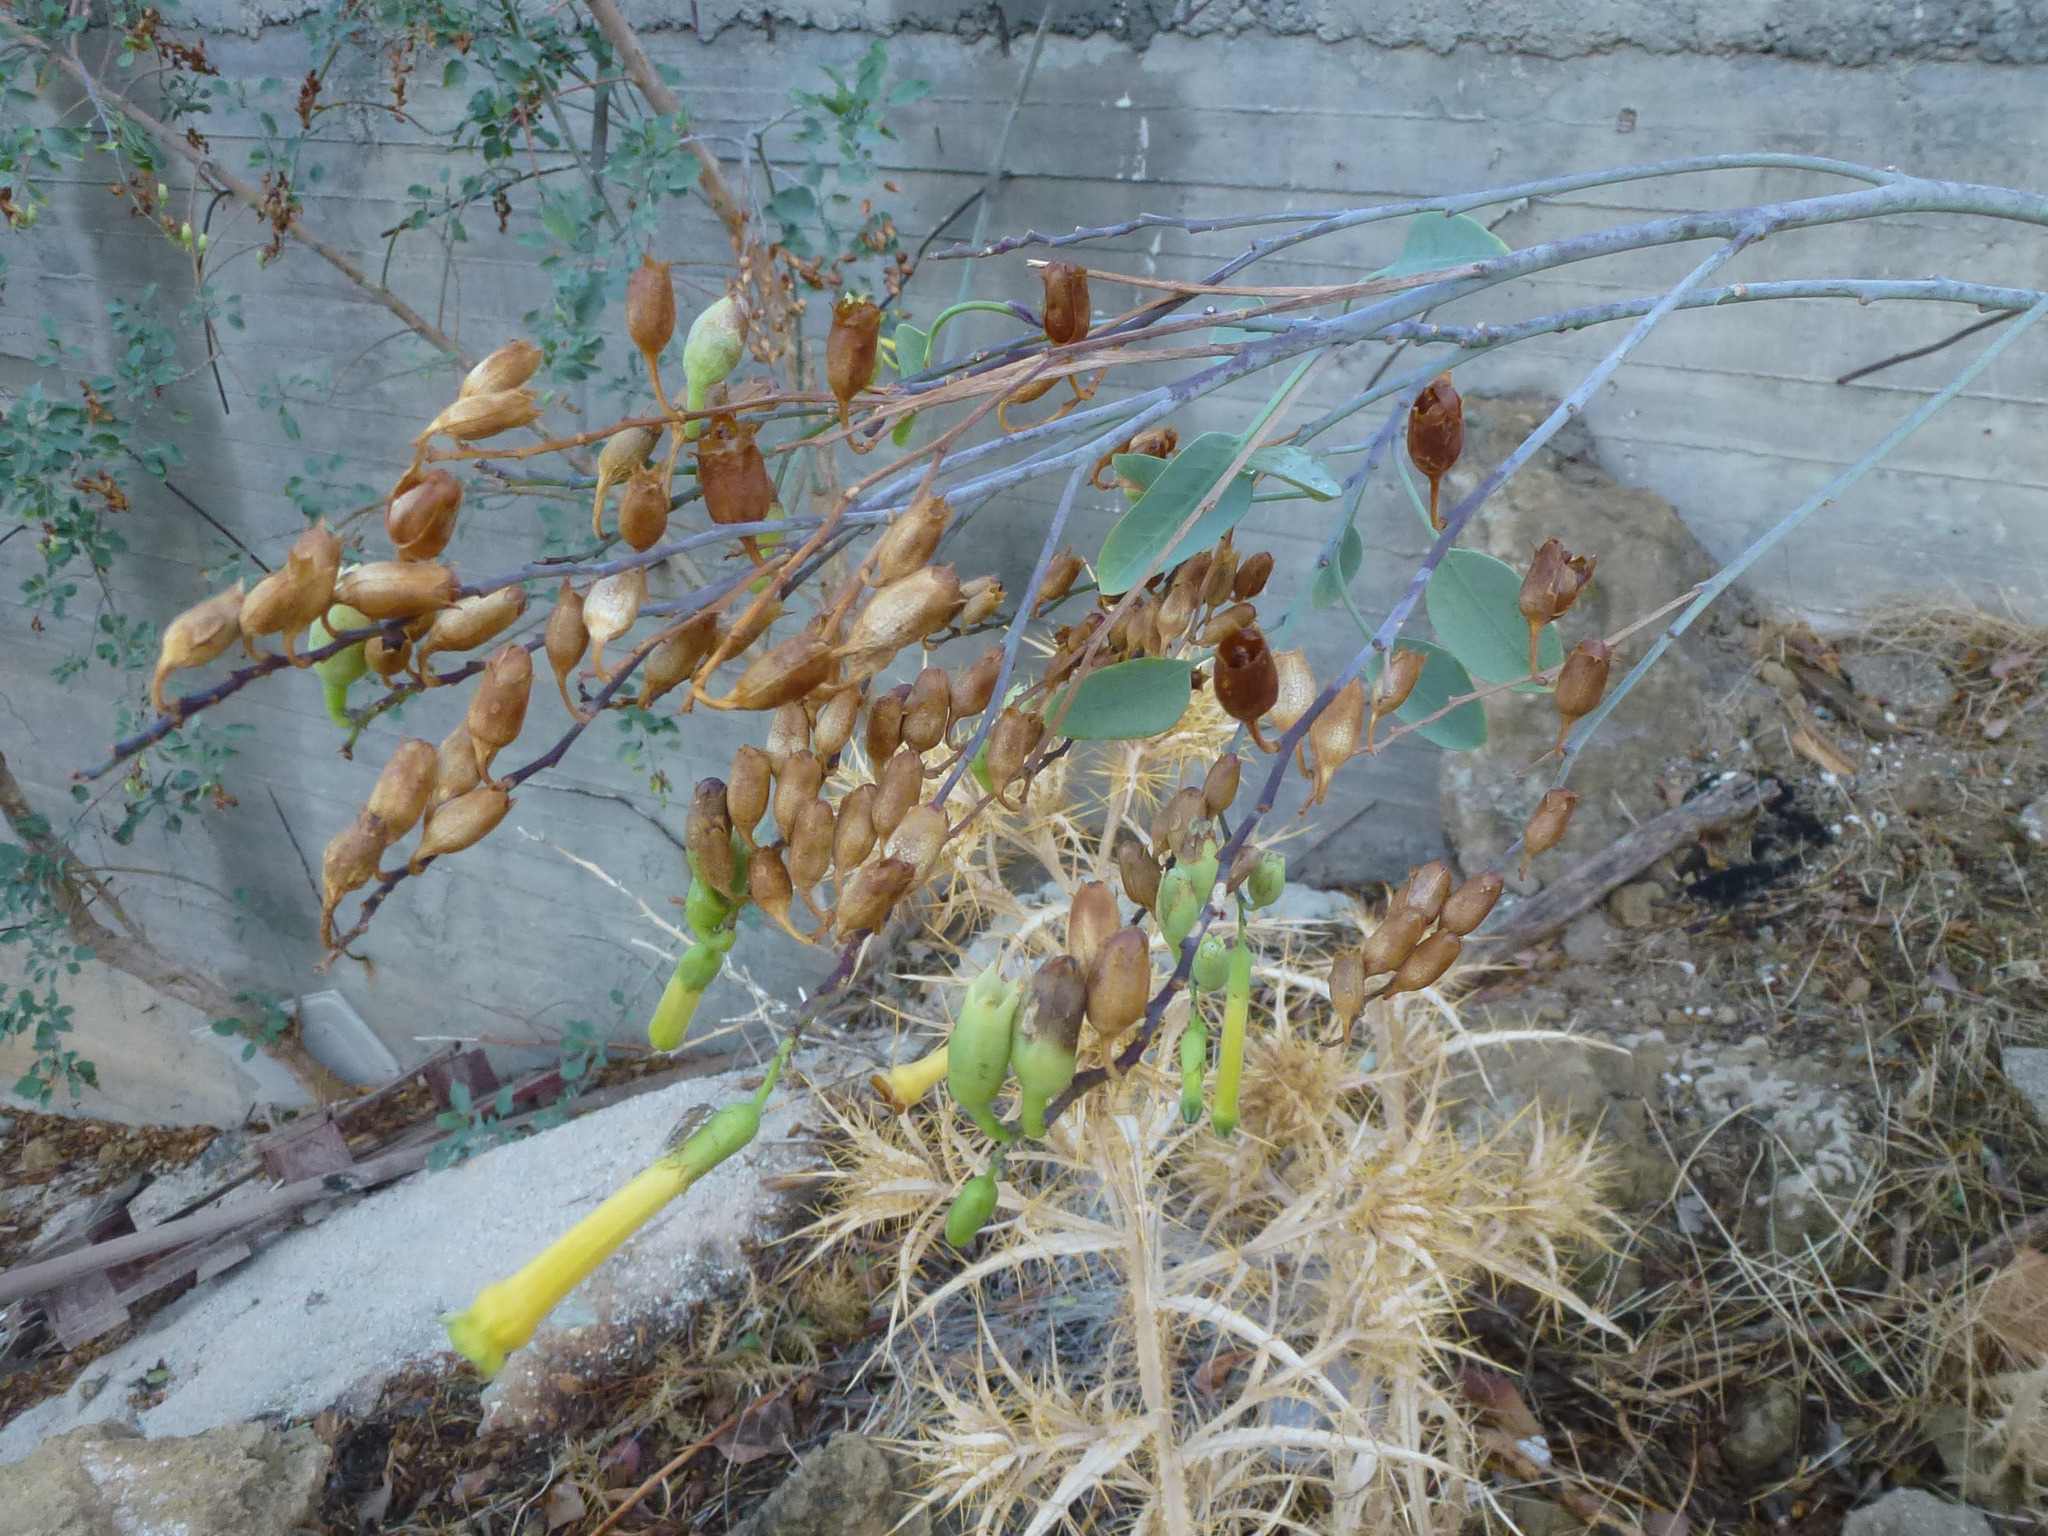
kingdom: Plantae
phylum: Tracheophyta
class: Magnoliopsida
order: Solanales
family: Solanaceae
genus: Nicotiana
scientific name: Nicotiana glauca
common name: Tree tobacco
